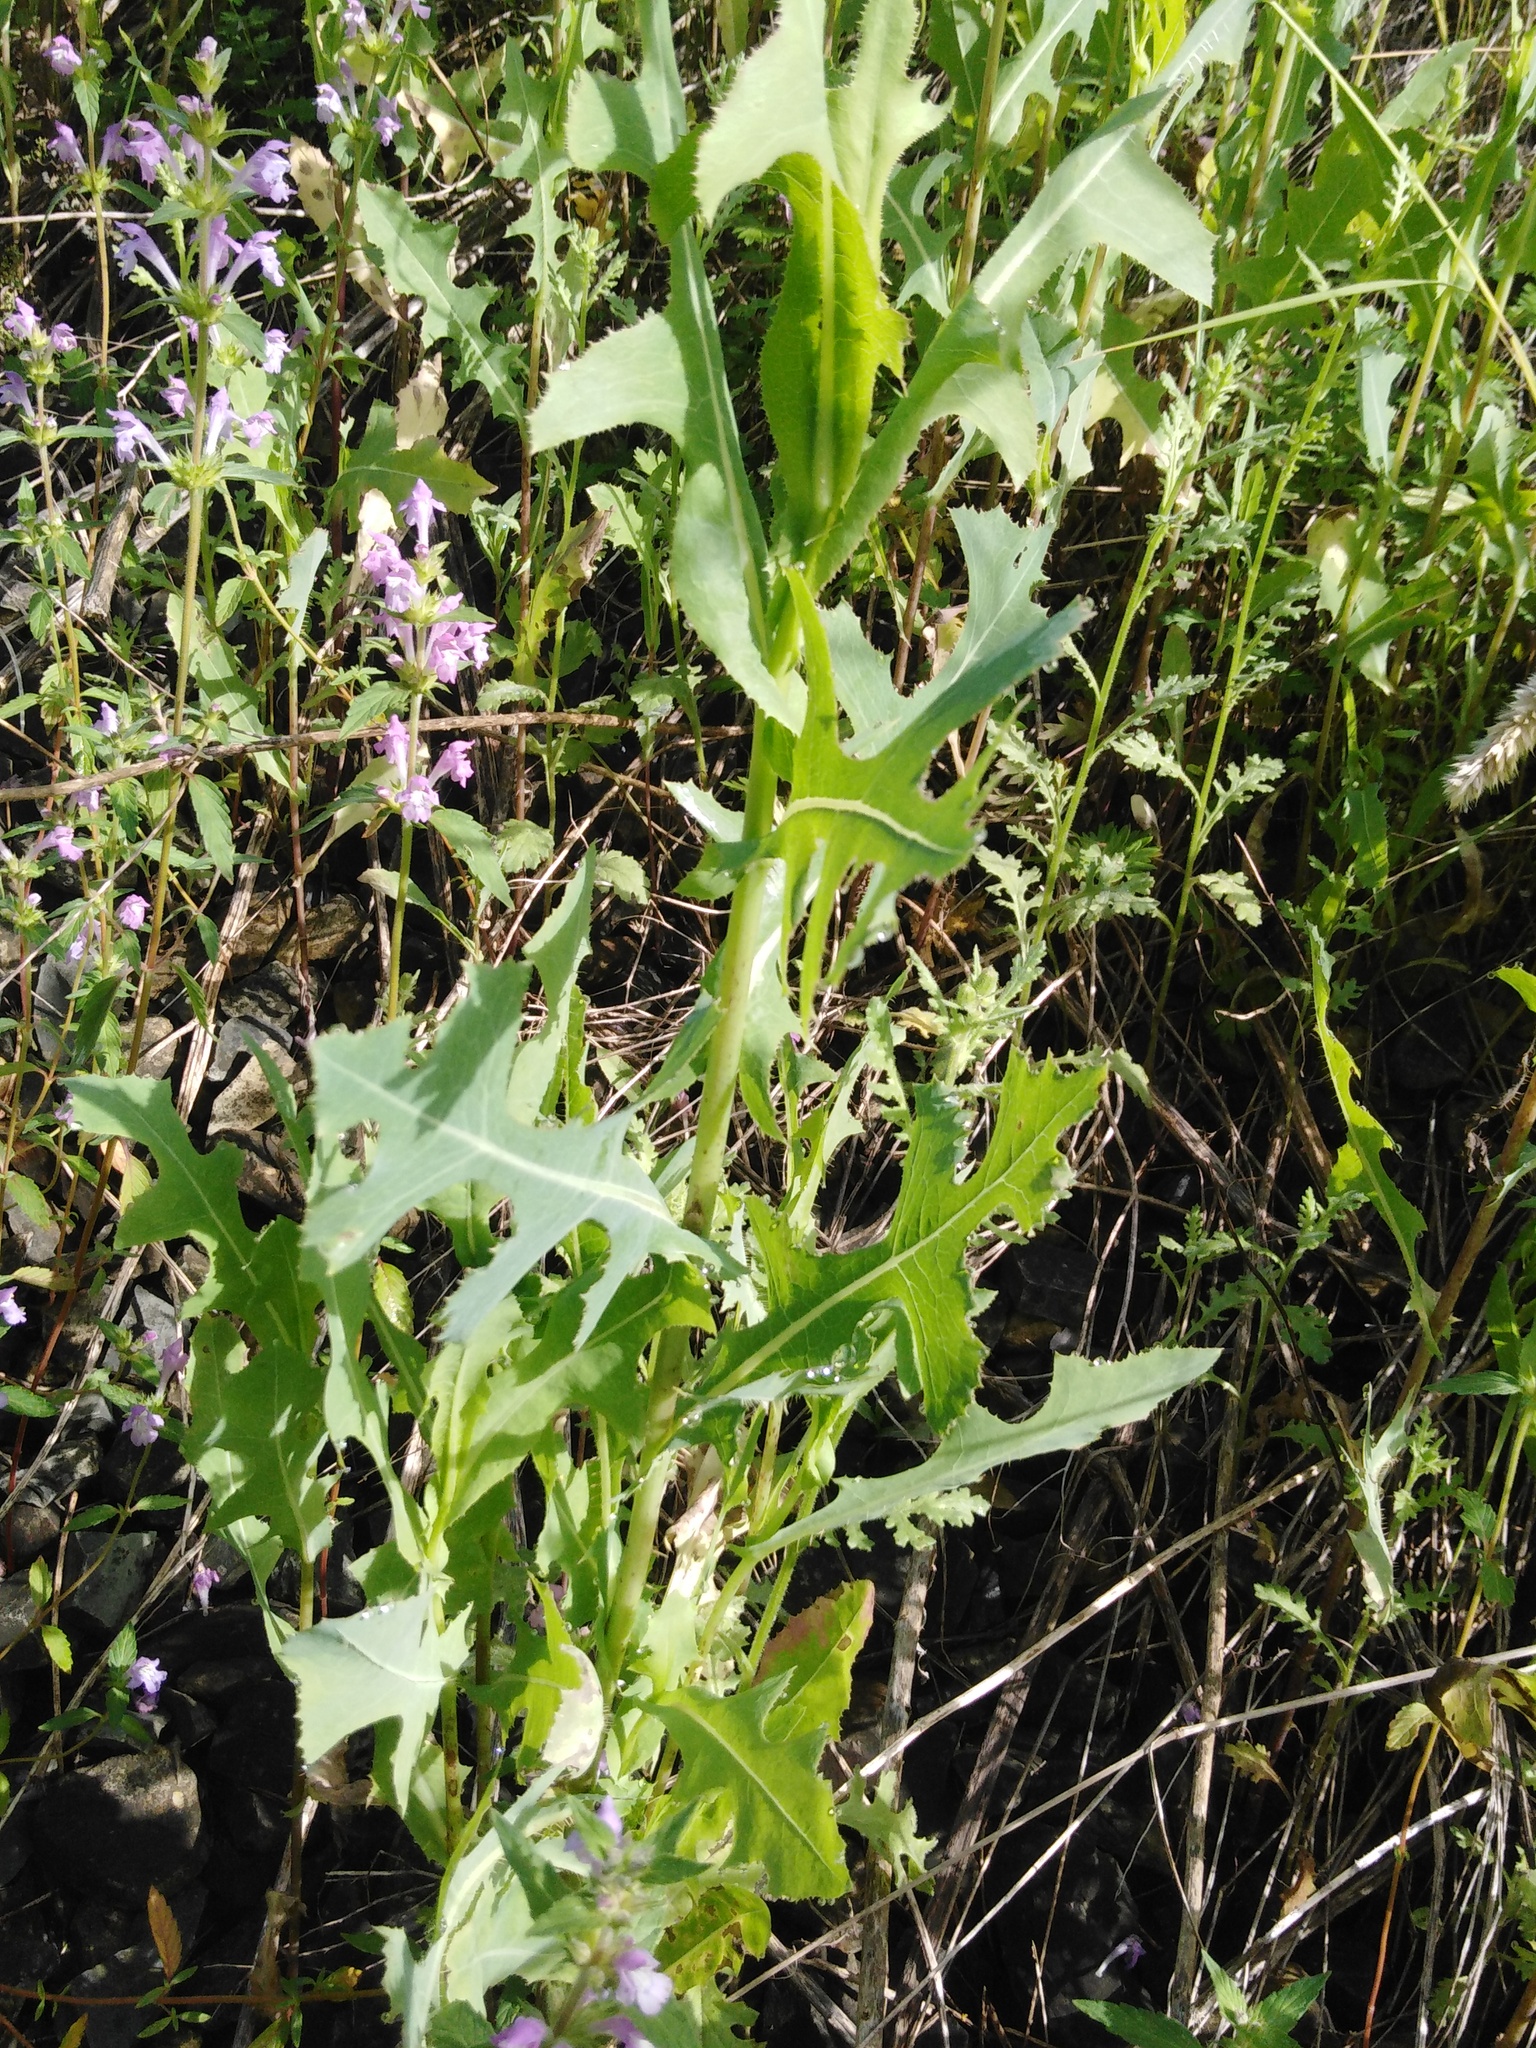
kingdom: Plantae
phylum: Tracheophyta
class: Magnoliopsida
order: Asterales
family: Asteraceae
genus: Lactuca
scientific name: Lactuca serriola
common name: Prickly lettuce
